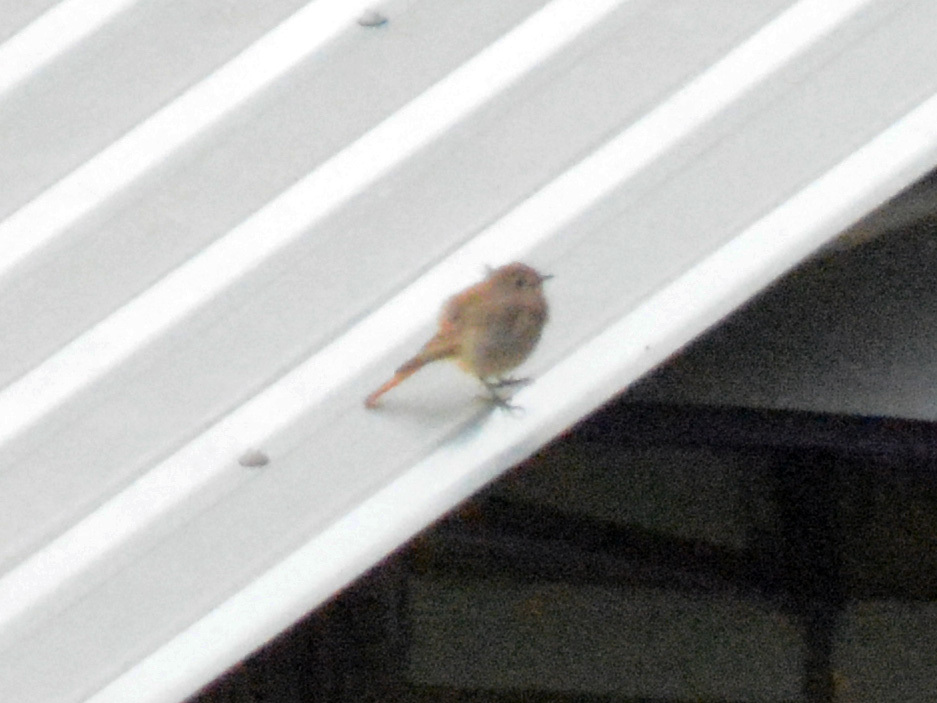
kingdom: Animalia
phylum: Chordata
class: Aves
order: Passeriformes
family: Muscicapidae
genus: Phoenicurus
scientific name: Phoenicurus ochruros
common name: Black redstart
